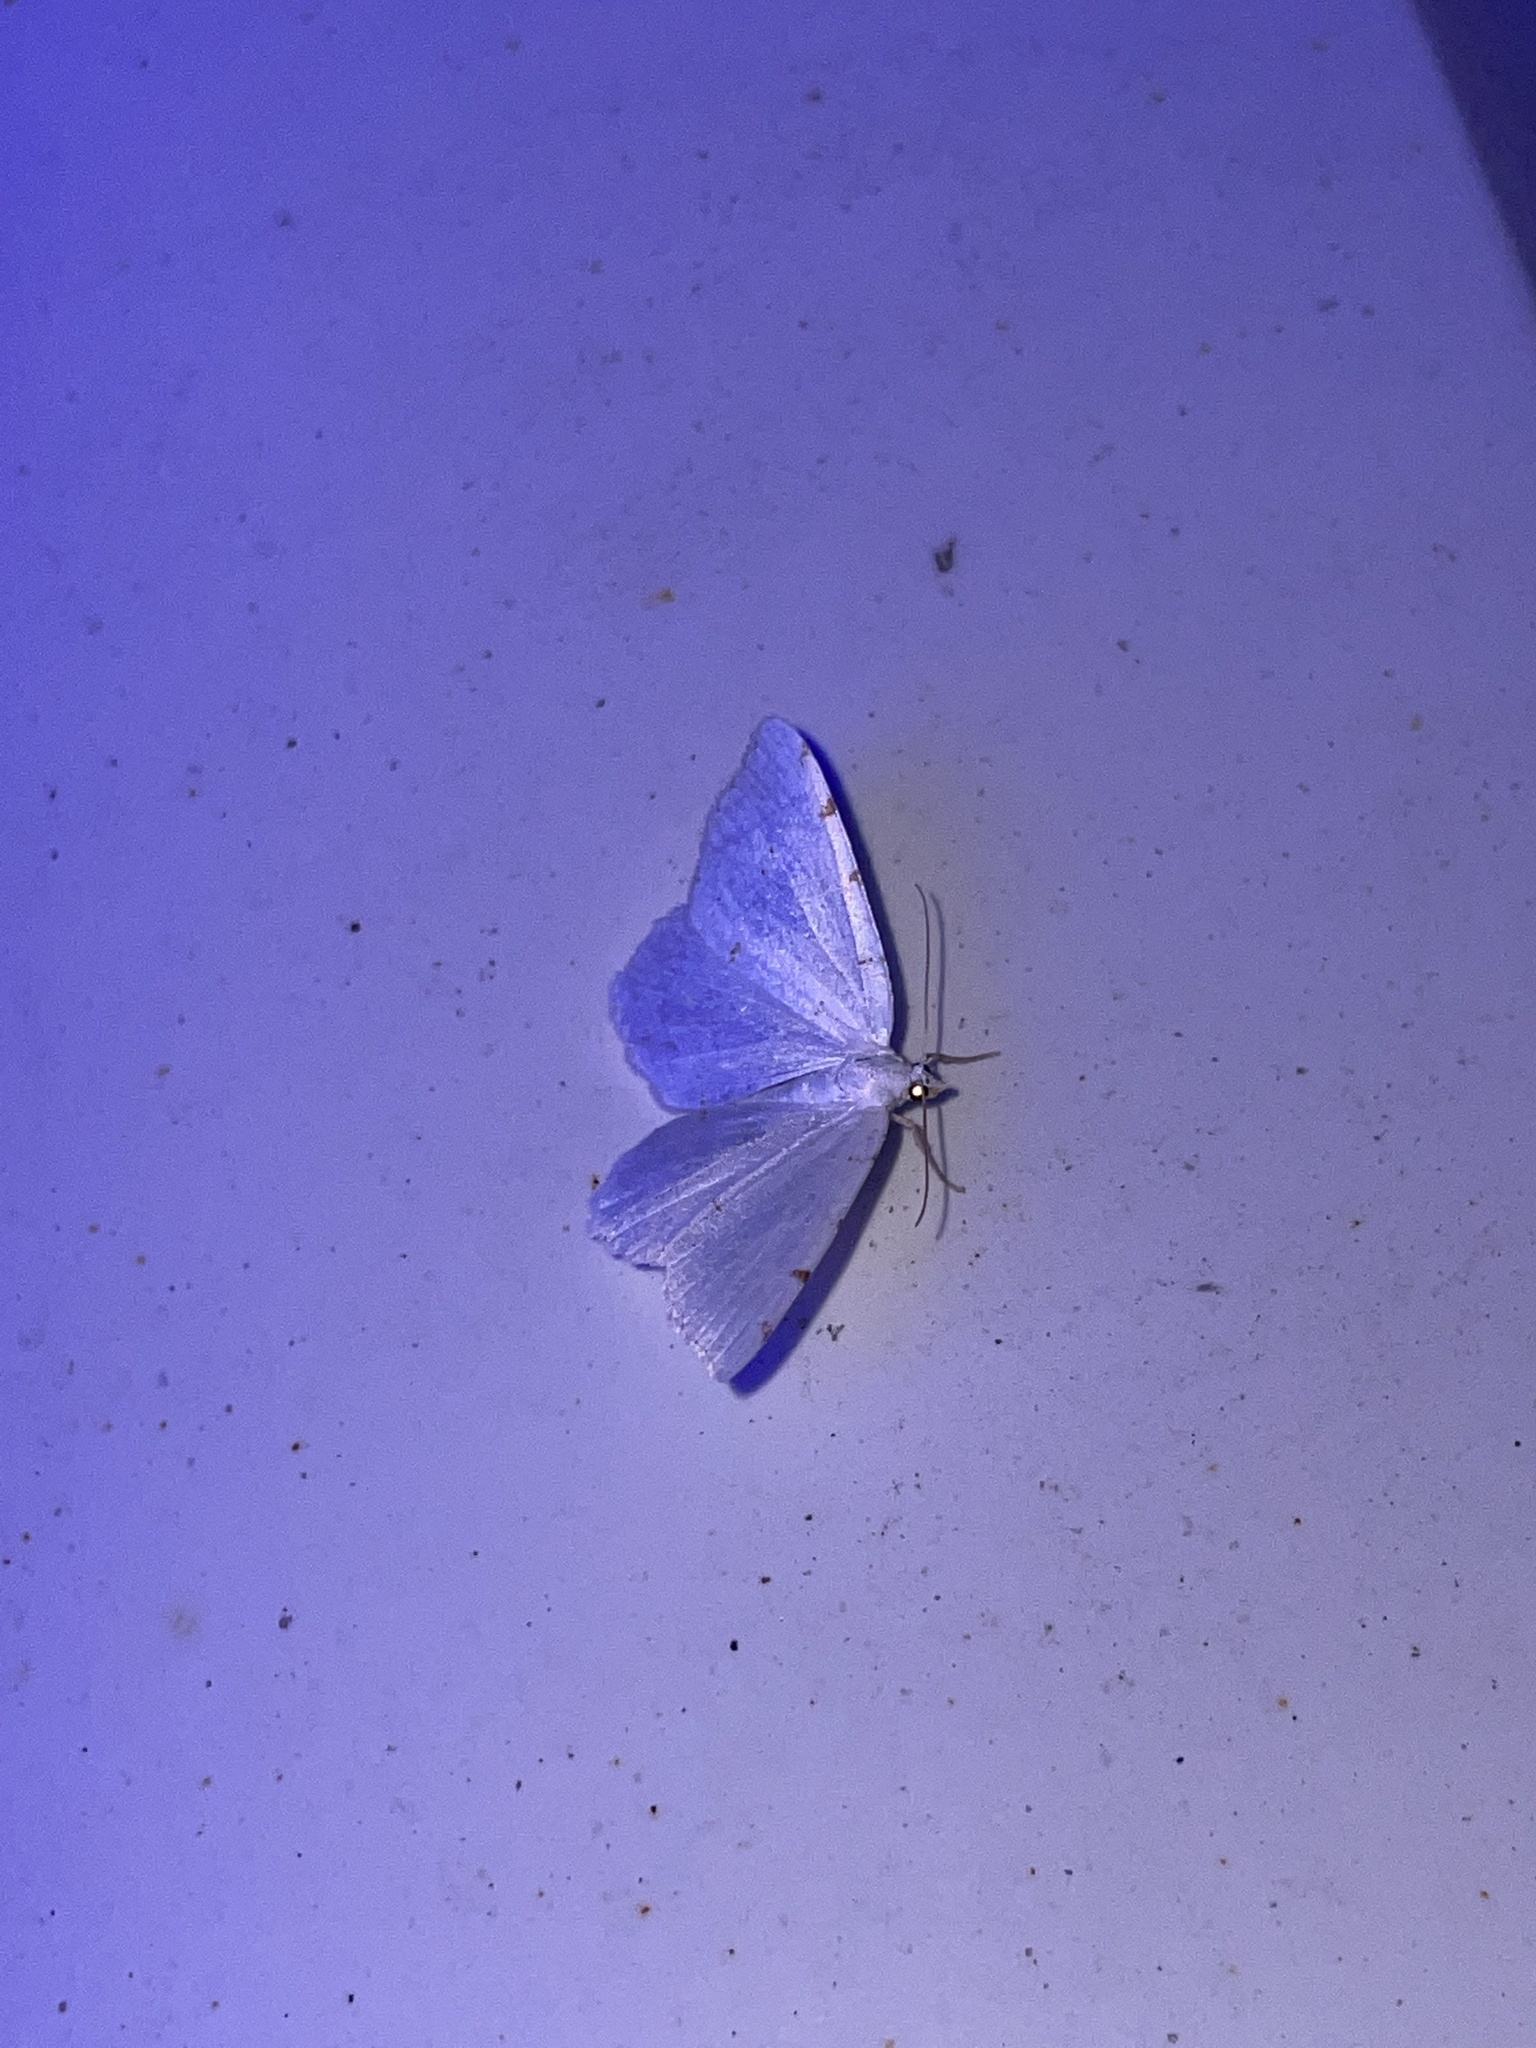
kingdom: Animalia
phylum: Arthropoda
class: Insecta
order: Lepidoptera
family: Geometridae
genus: Macaria
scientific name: Macaria pustularia
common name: Lesser maple spanworm moth
